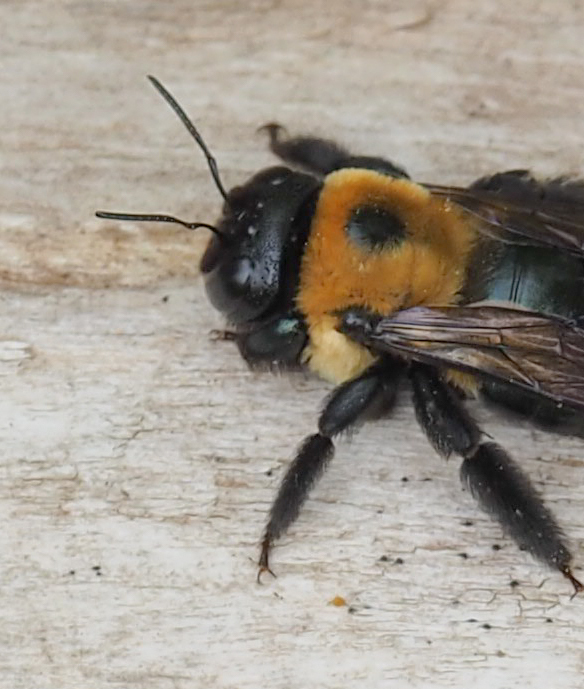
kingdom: Animalia
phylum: Arthropoda
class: Insecta
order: Hymenoptera
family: Apidae
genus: Xylocopa
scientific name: Xylocopa virginica
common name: Carpenter bee
